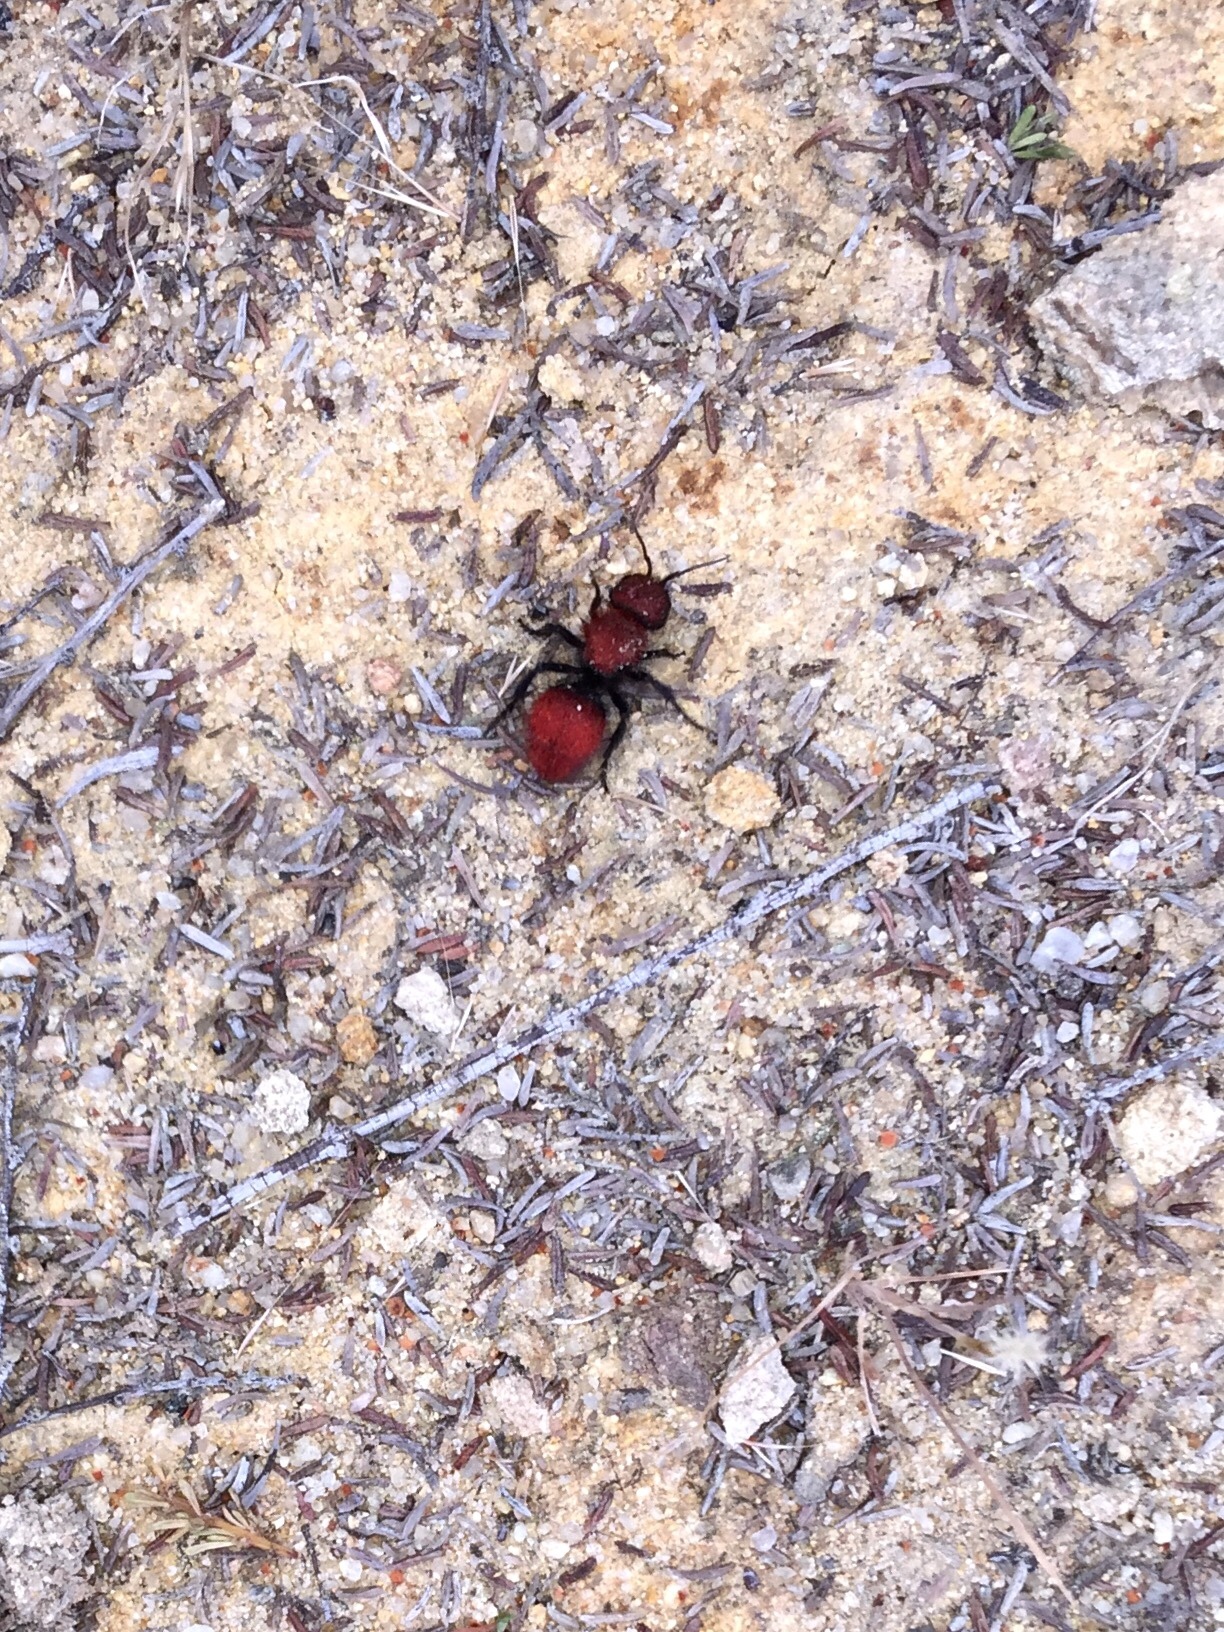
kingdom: Animalia
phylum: Arthropoda
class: Insecta
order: Hymenoptera
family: Mutillidae
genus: Dasymutilla
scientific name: Dasymutilla
